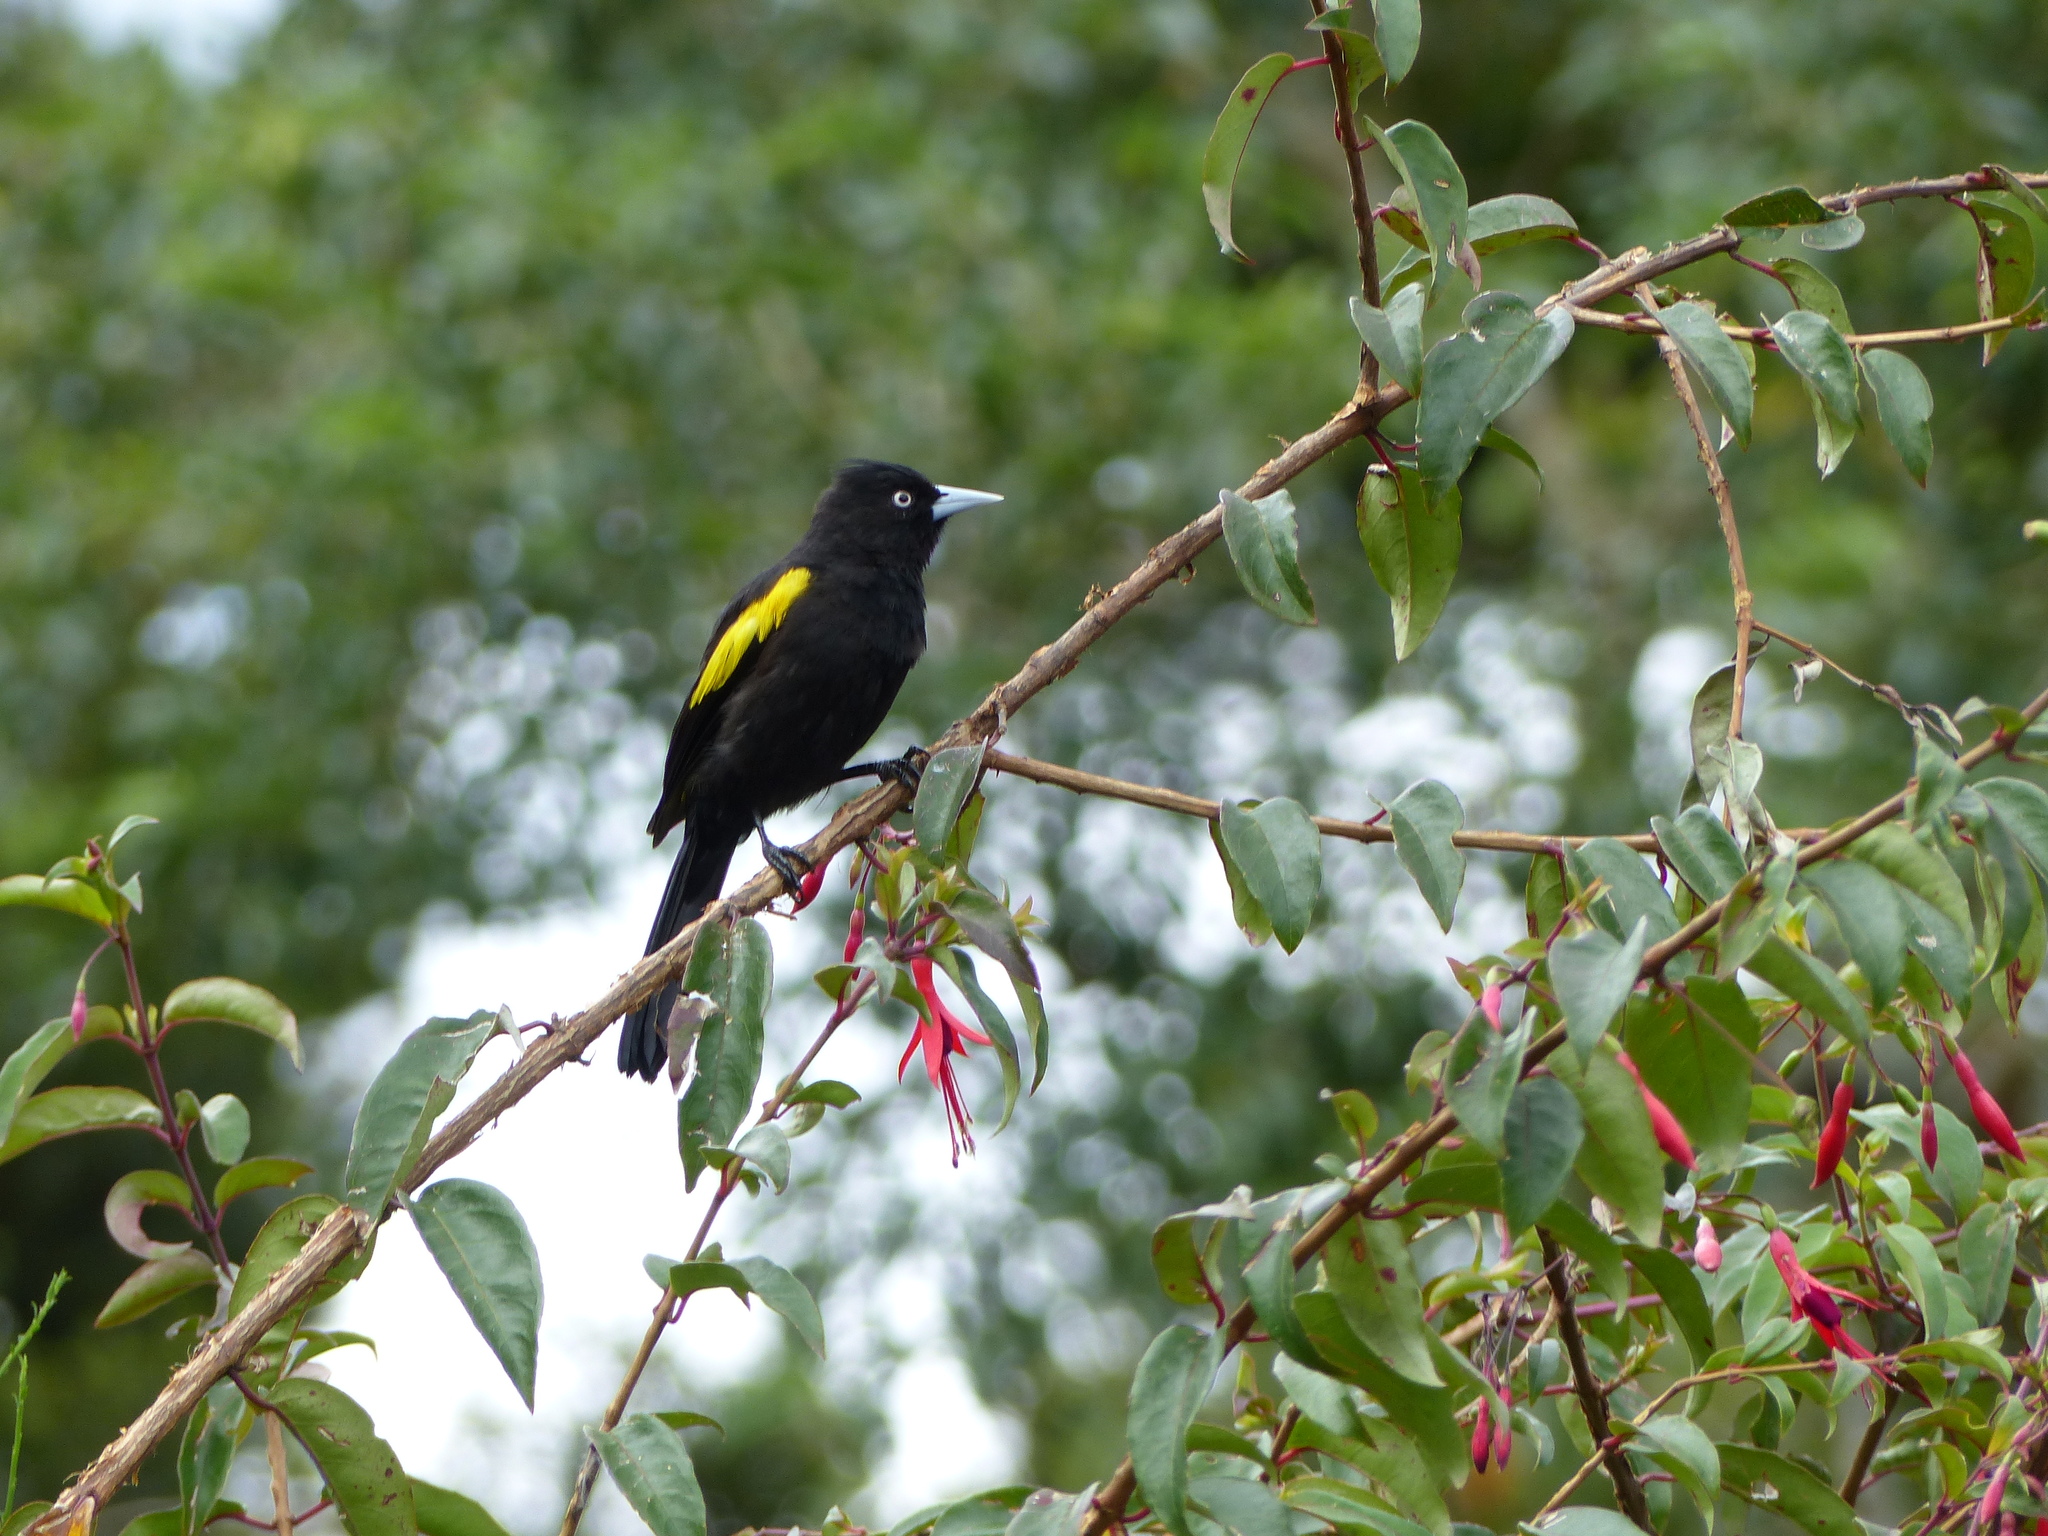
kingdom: Animalia
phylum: Chordata
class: Aves
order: Passeriformes
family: Icteridae
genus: Cacicus
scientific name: Cacicus chrysopterus
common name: Golden-winged cacique
